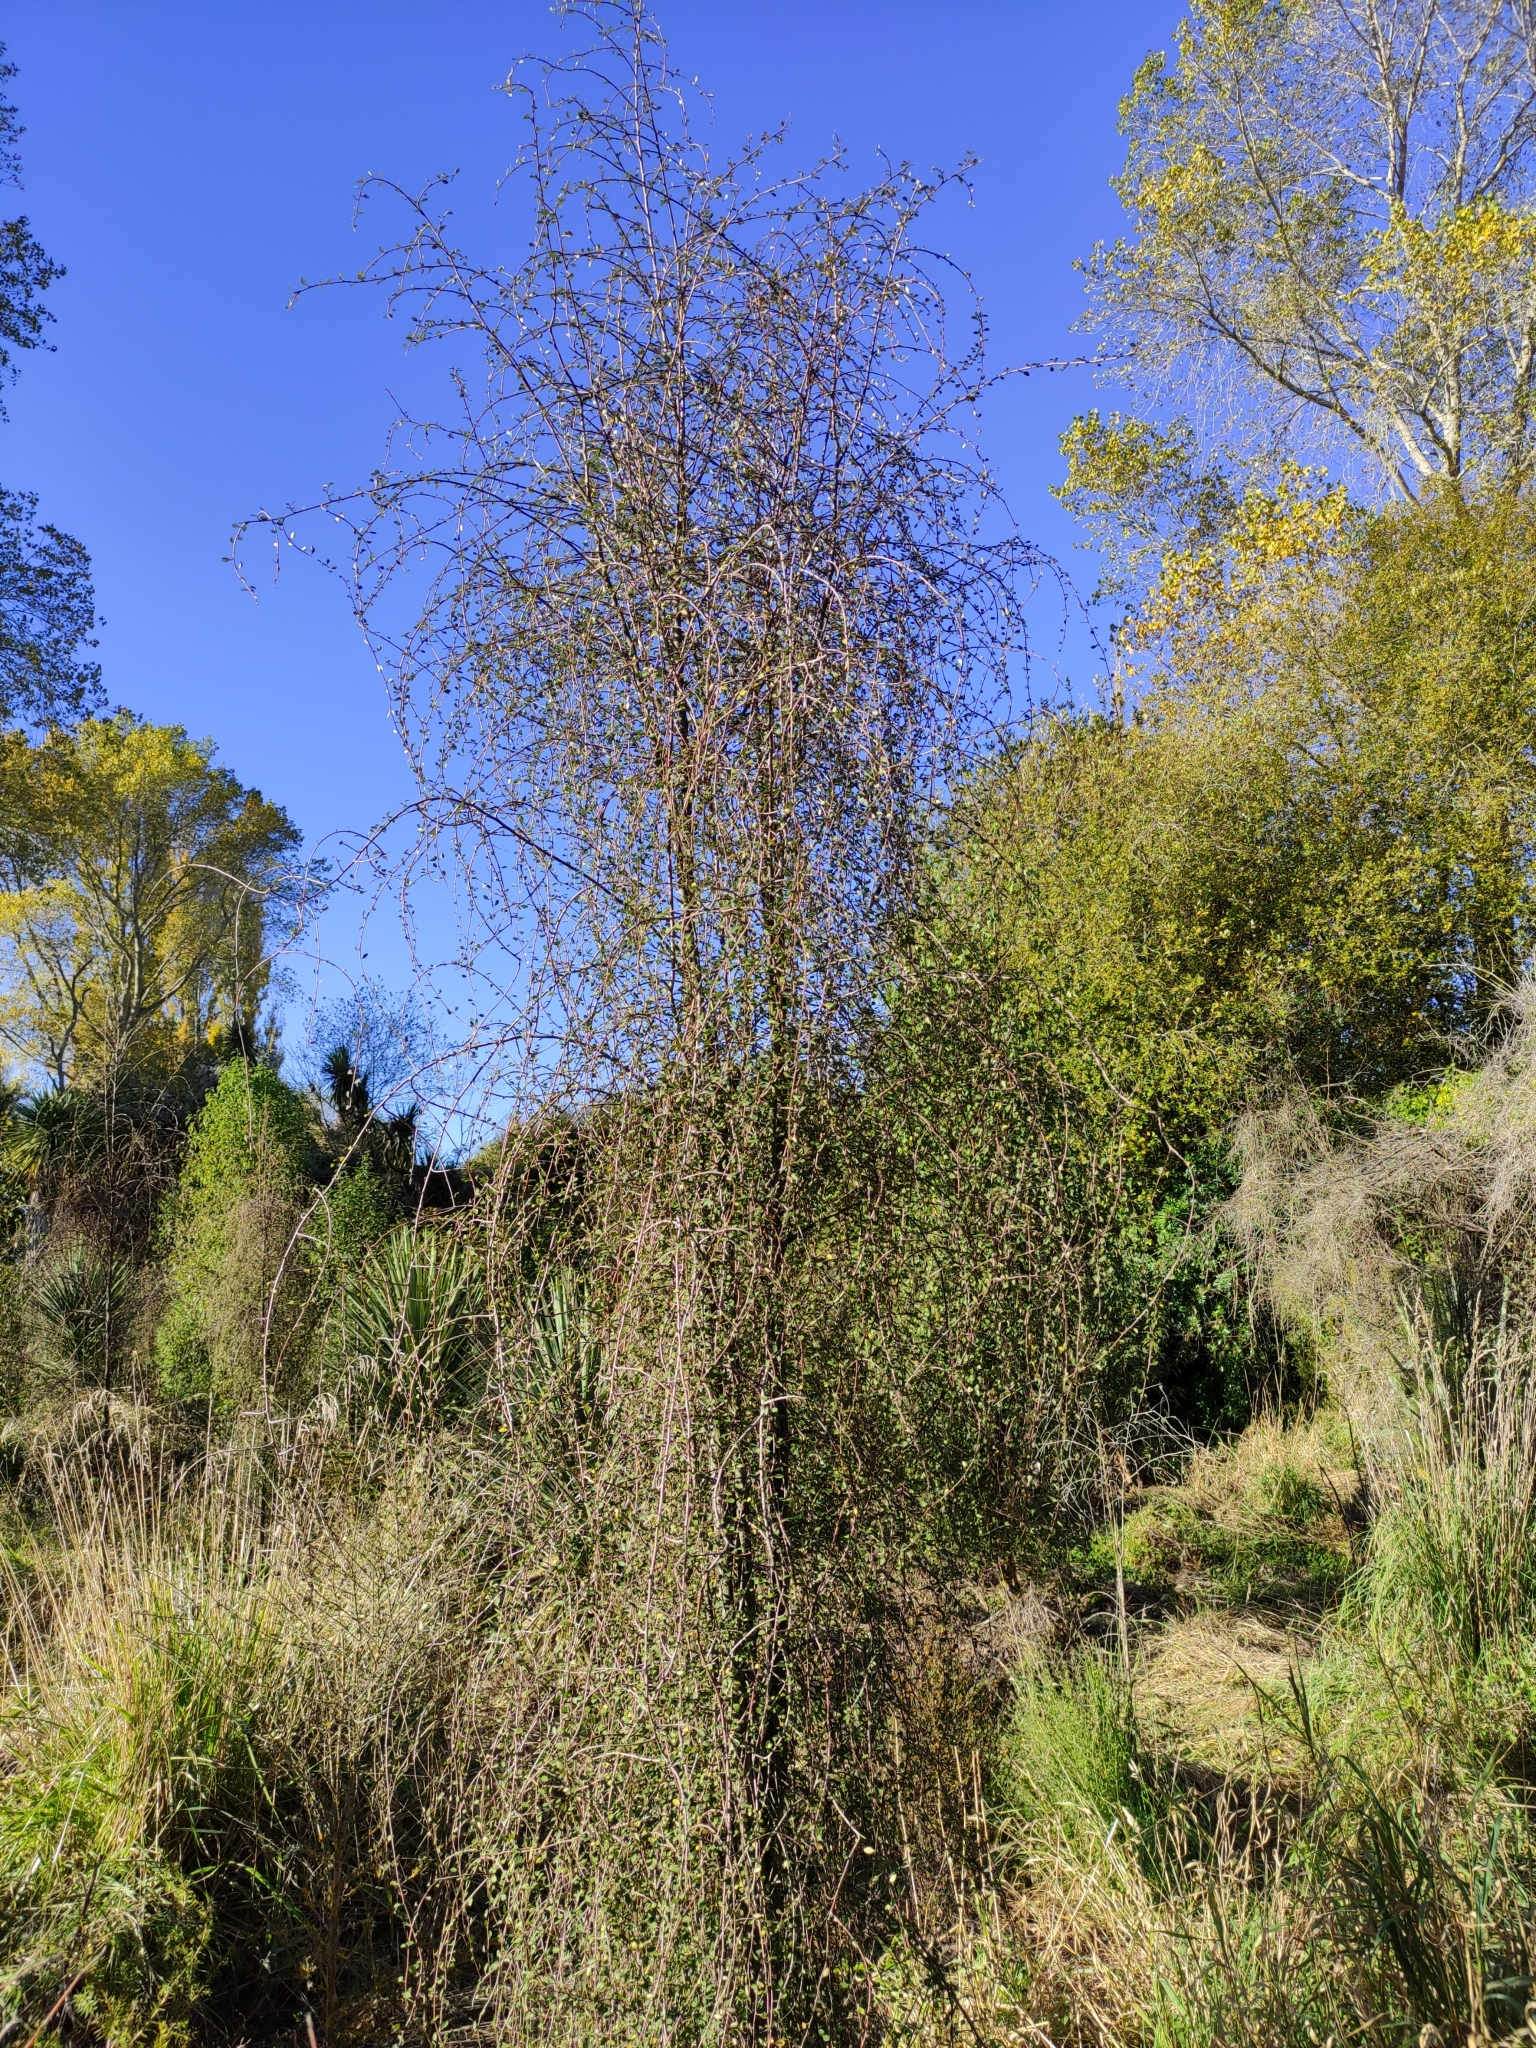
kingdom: Plantae
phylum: Tracheophyta
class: Magnoliopsida
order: Malvales
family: Malvaceae
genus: Plagianthus
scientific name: Plagianthus regius
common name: Manatu
